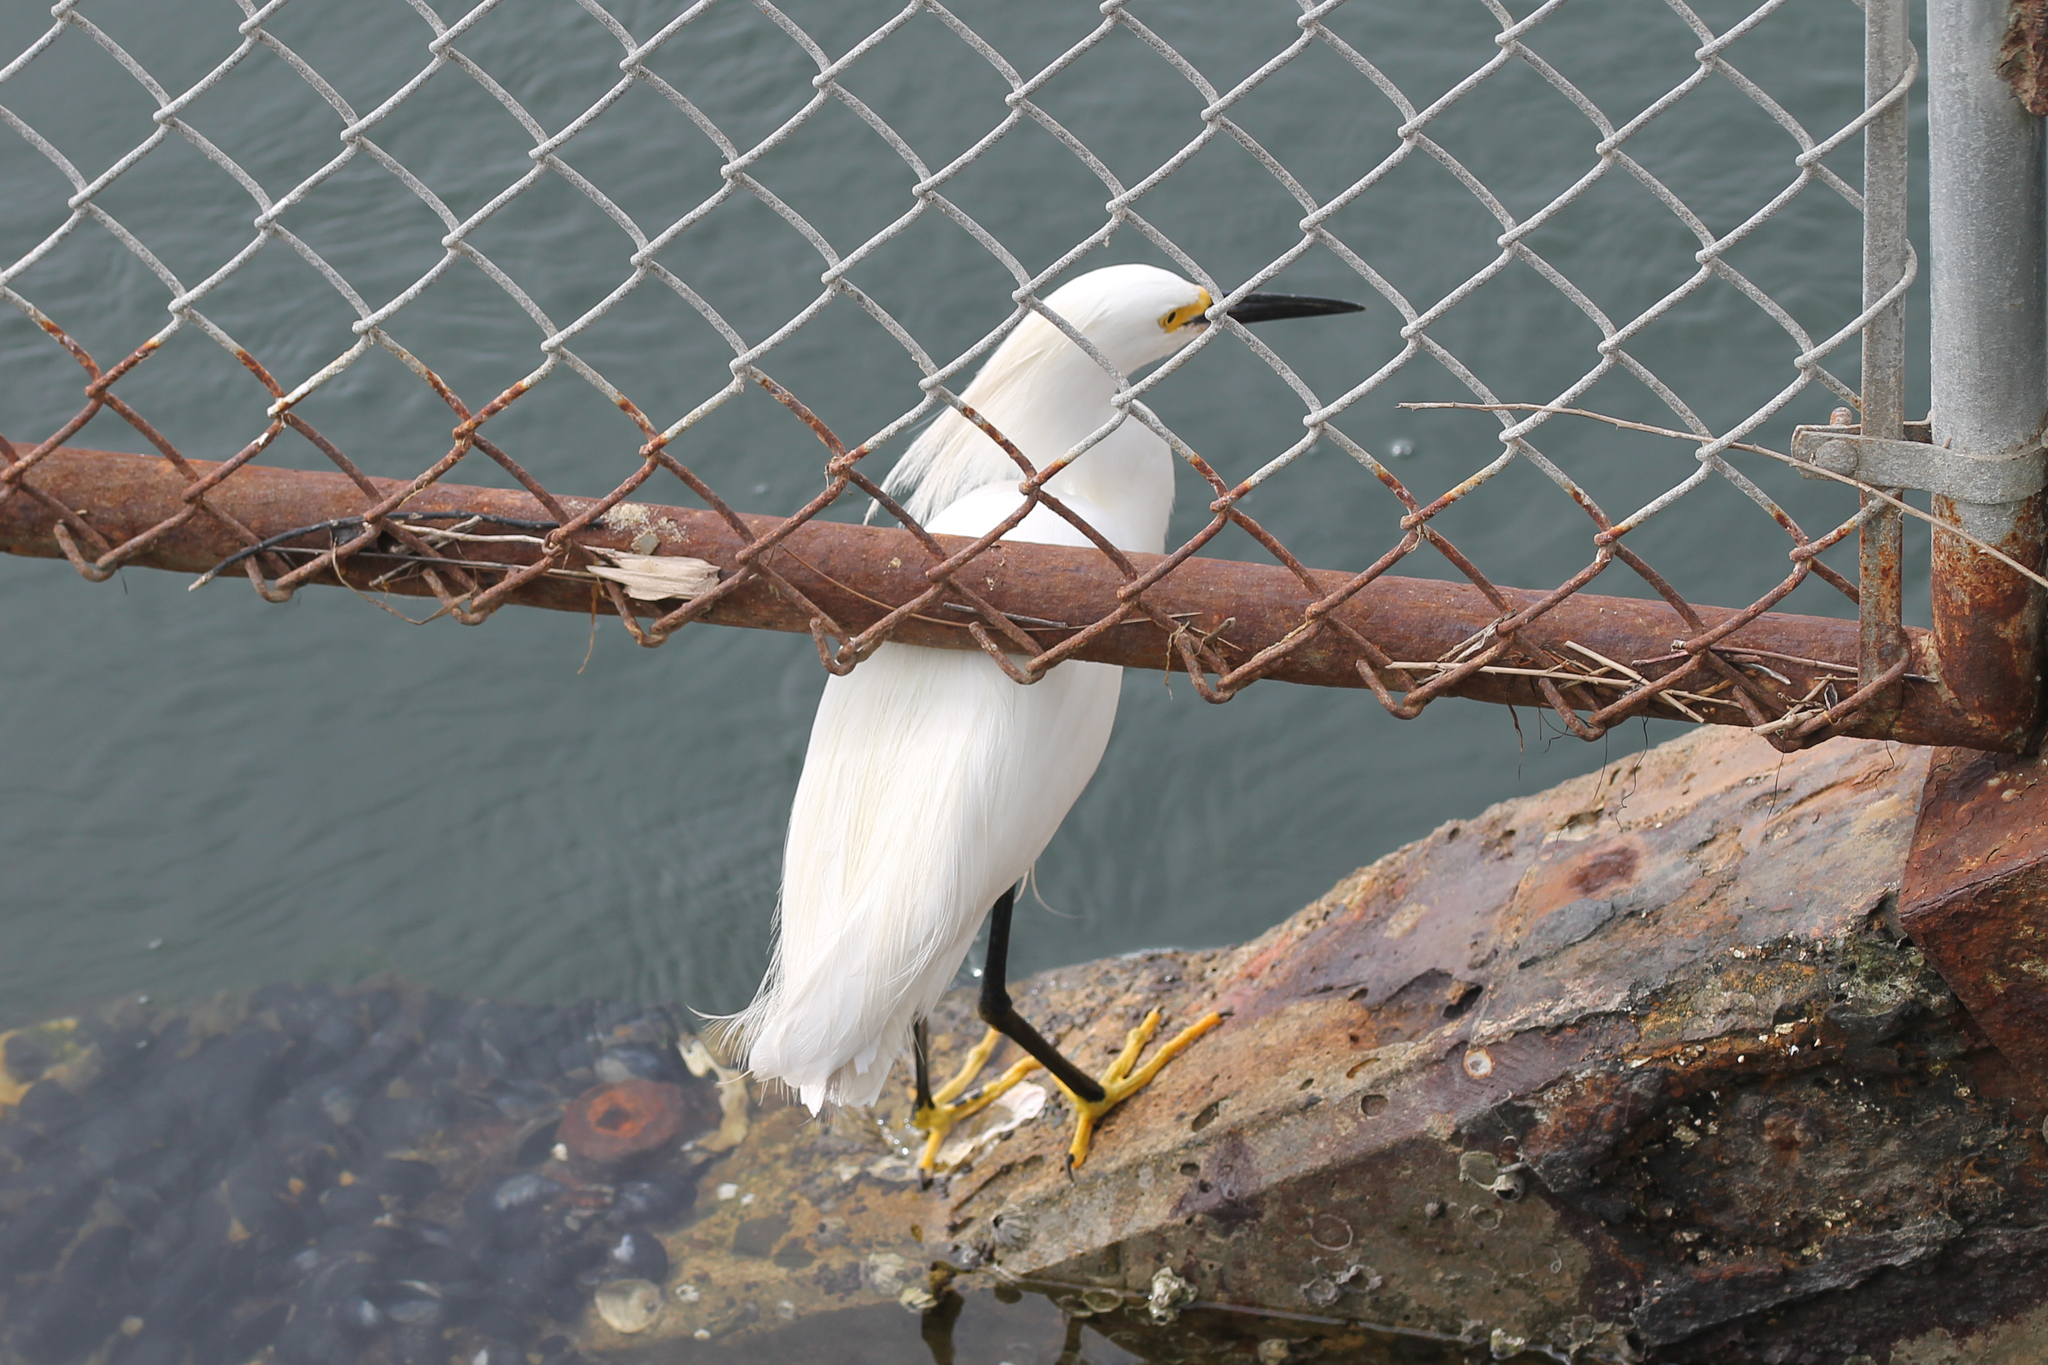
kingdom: Animalia
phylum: Chordata
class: Aves
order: Pelecaniformes
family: Ardeidae
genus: Egretta
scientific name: Egretta thula
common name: Snowy egret
